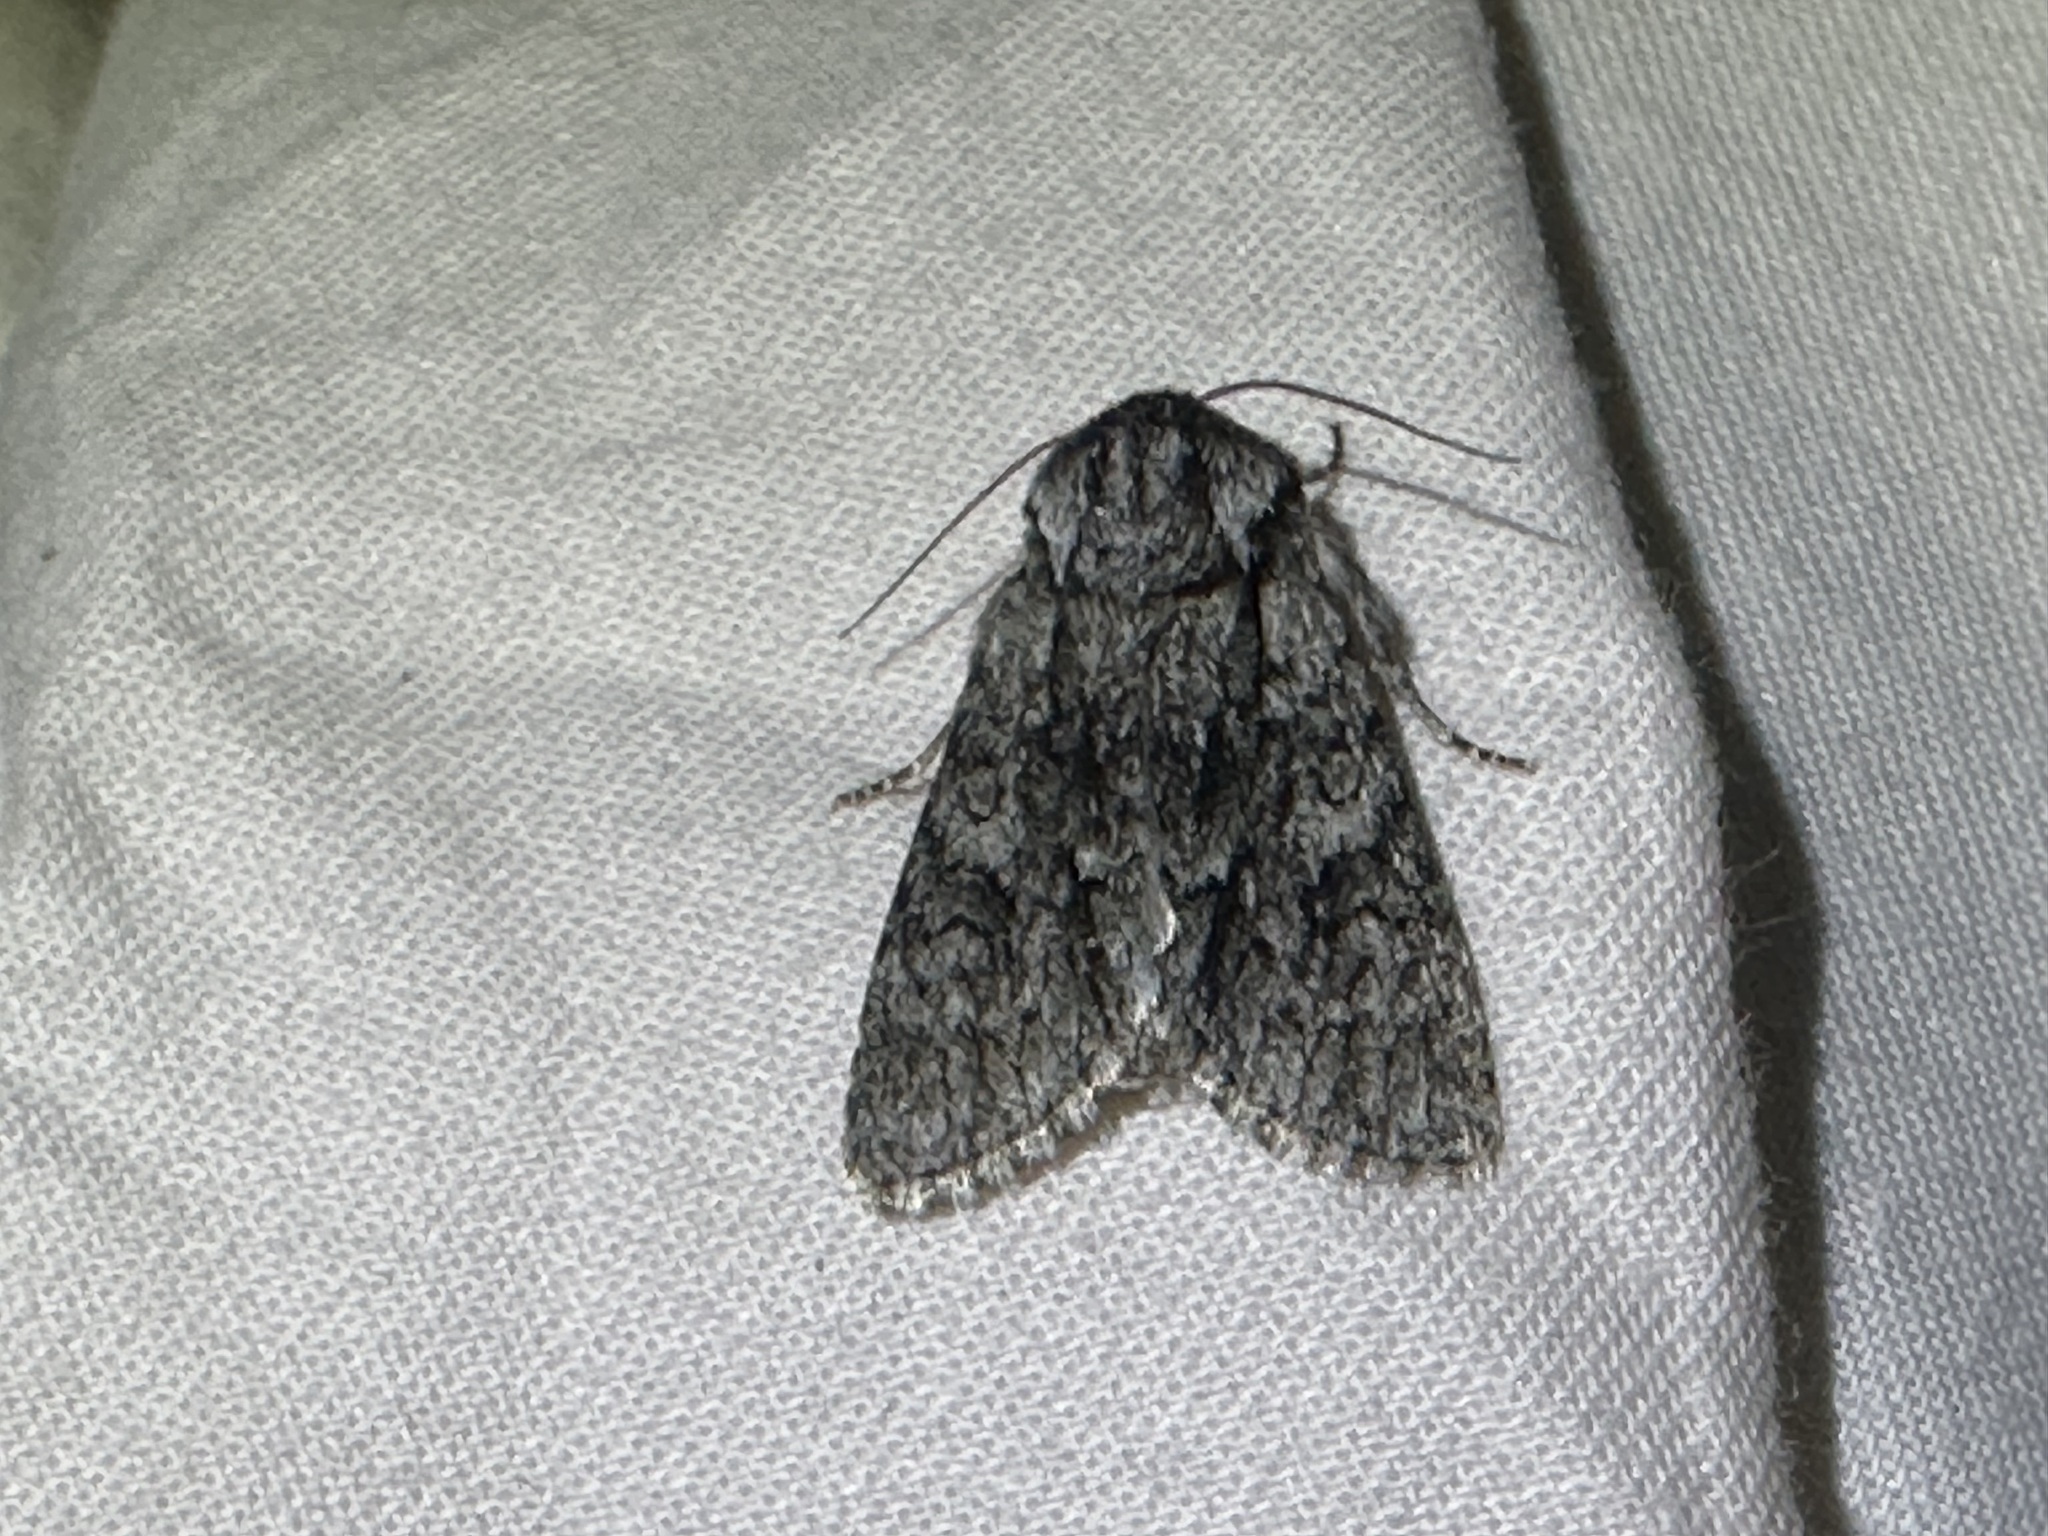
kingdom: Animalia
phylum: Arthropoda
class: Insecta
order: Lepidoptera
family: Noctuidae
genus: Acronicta
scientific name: Acronicta euphorbiae
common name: Sweet gale moth
